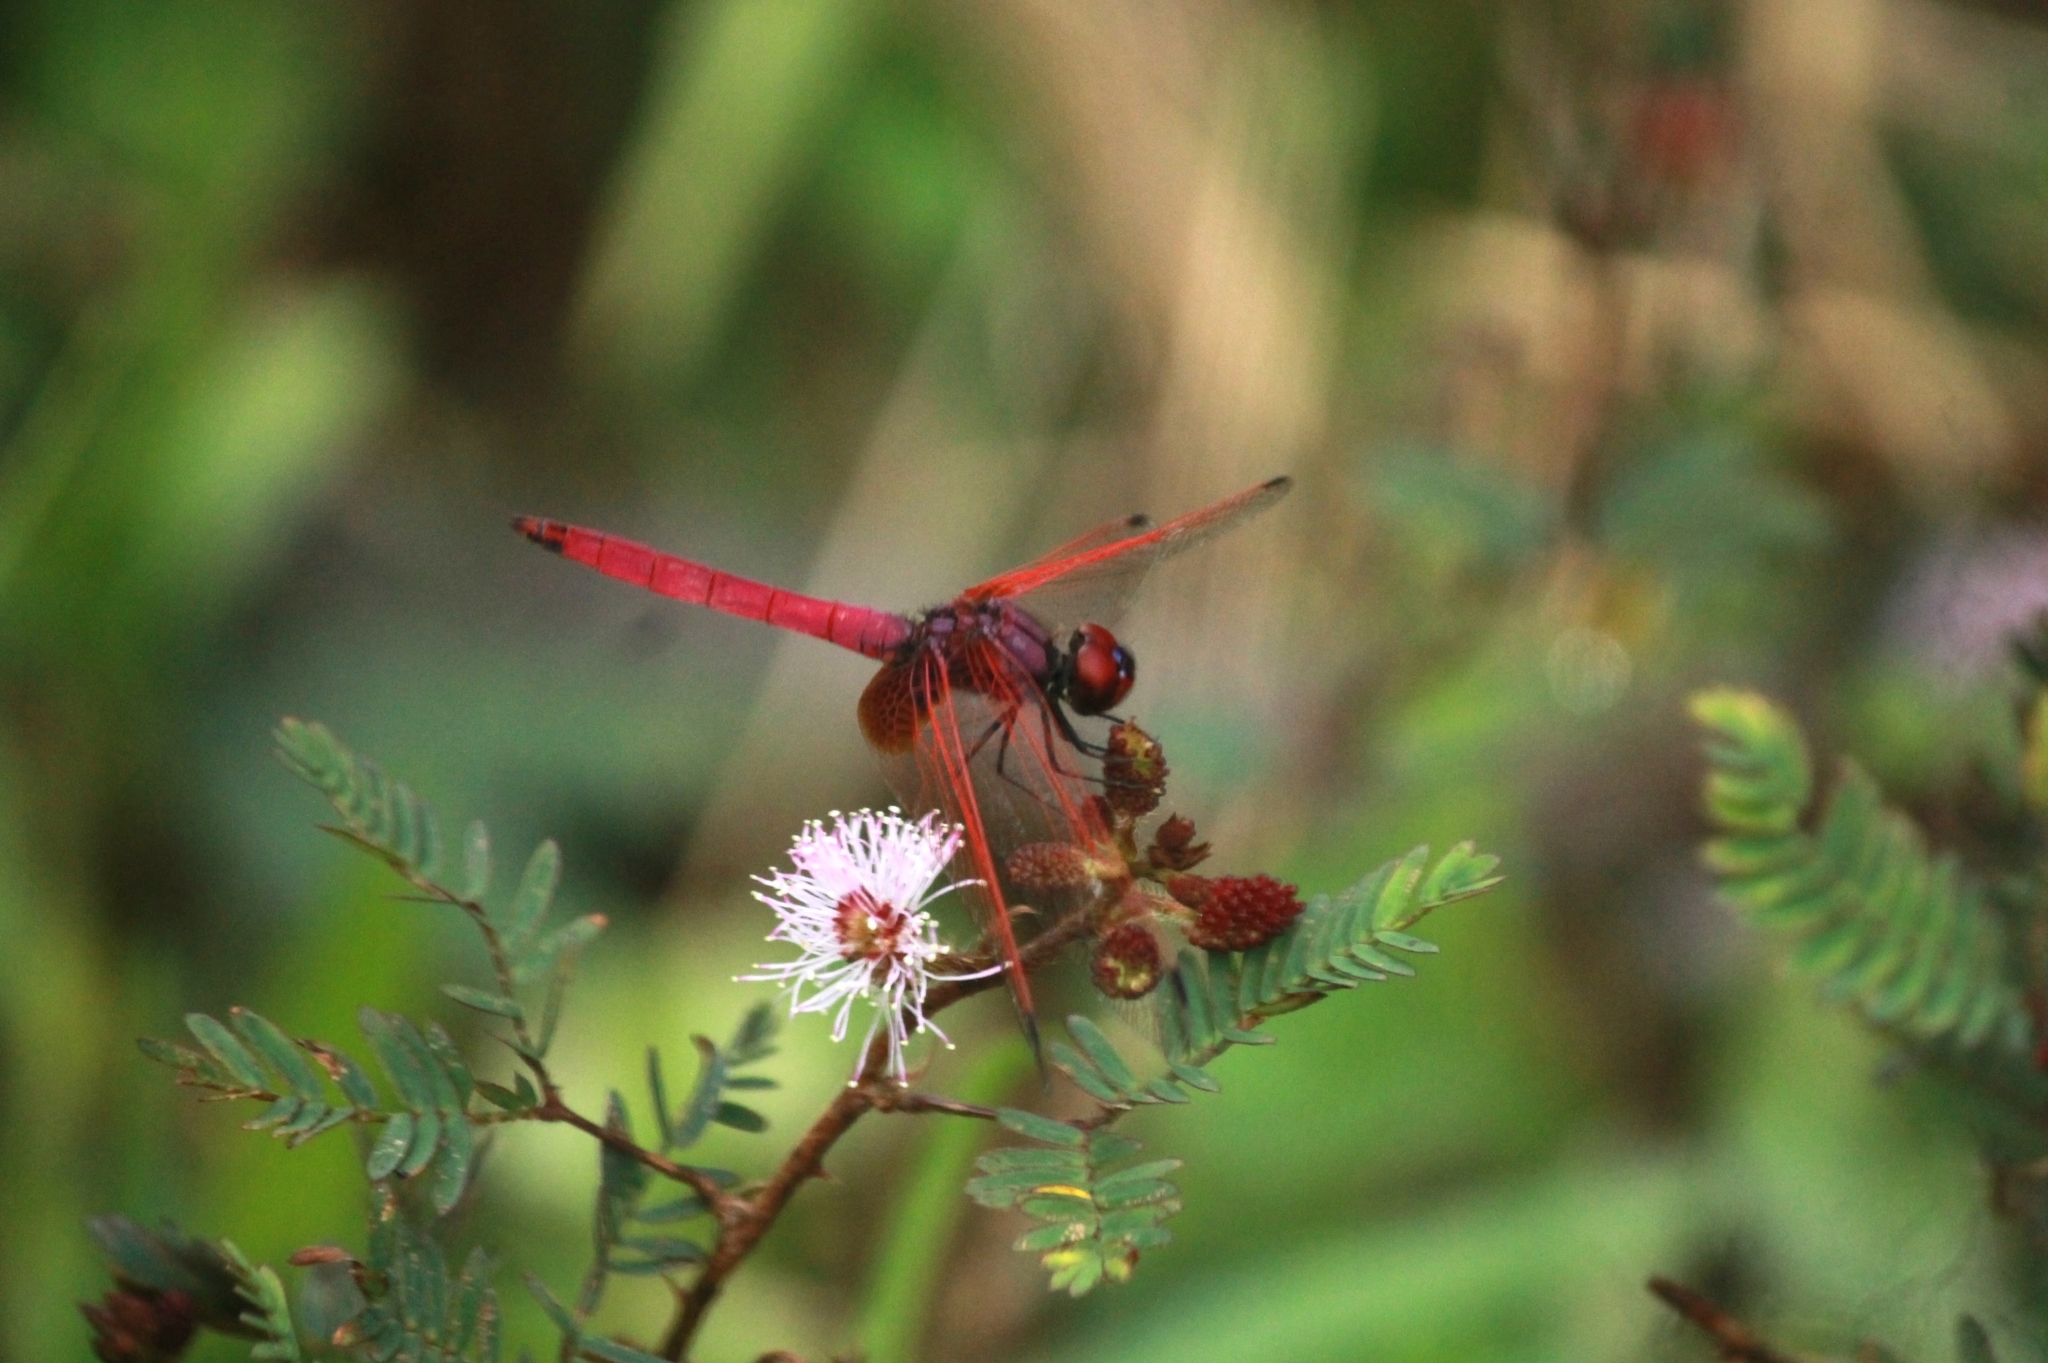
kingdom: Animalia
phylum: Arthropoda
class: Insecta
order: Odonata
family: Libellulidae
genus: Trithemis
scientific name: Trithemis aurora
